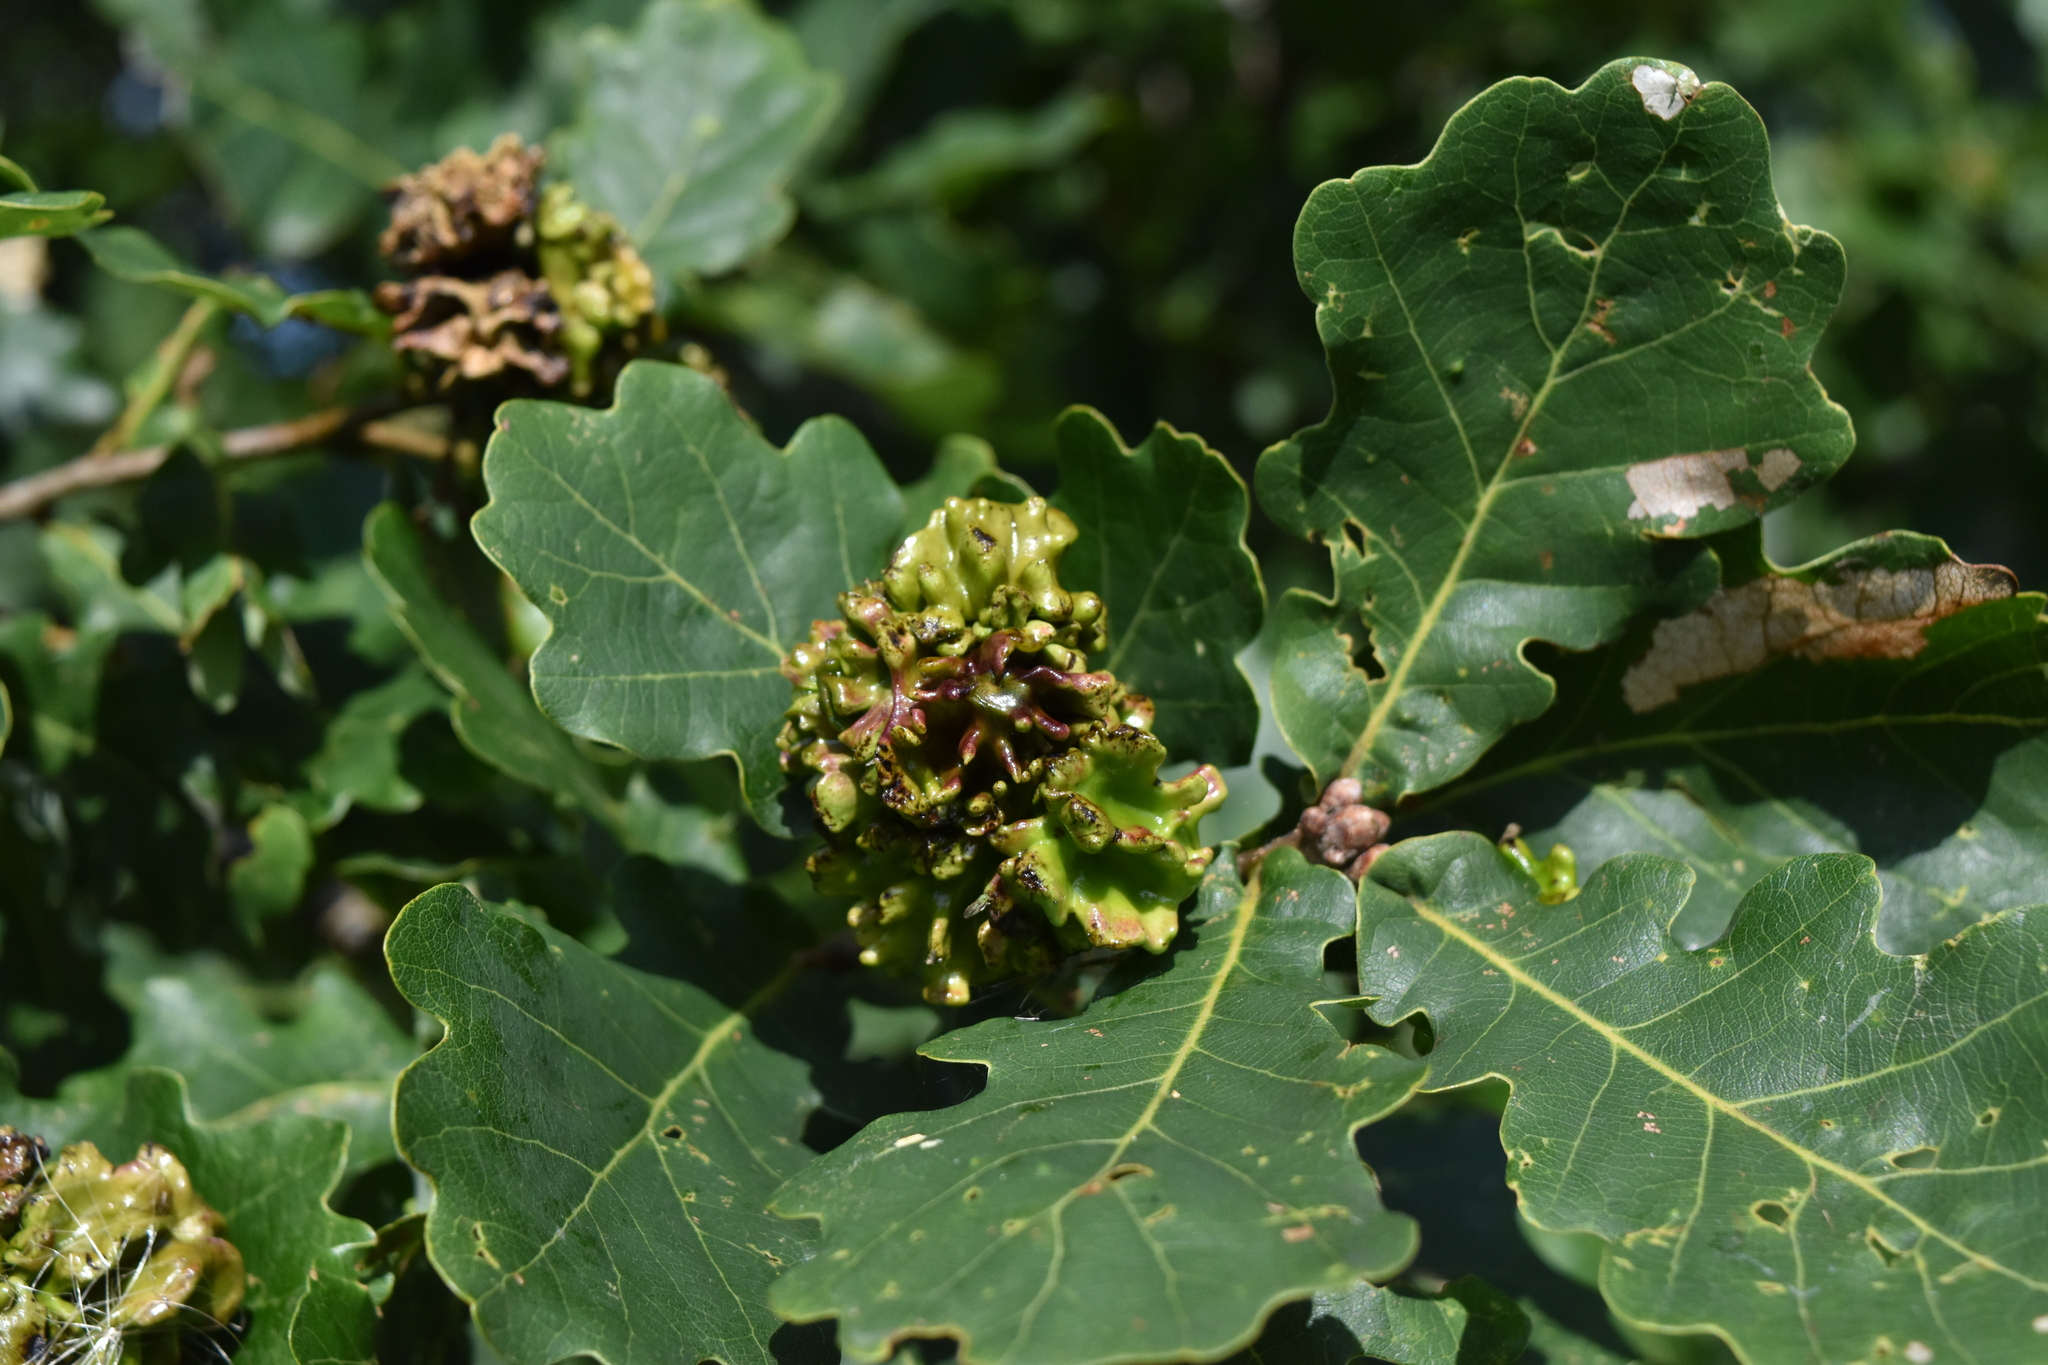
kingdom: Animalia
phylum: Arthropoda
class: Insecta
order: Hymenoptera
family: Cynipidae
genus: Andricus
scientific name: Andricus quercuscalicis
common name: Knopper gall
